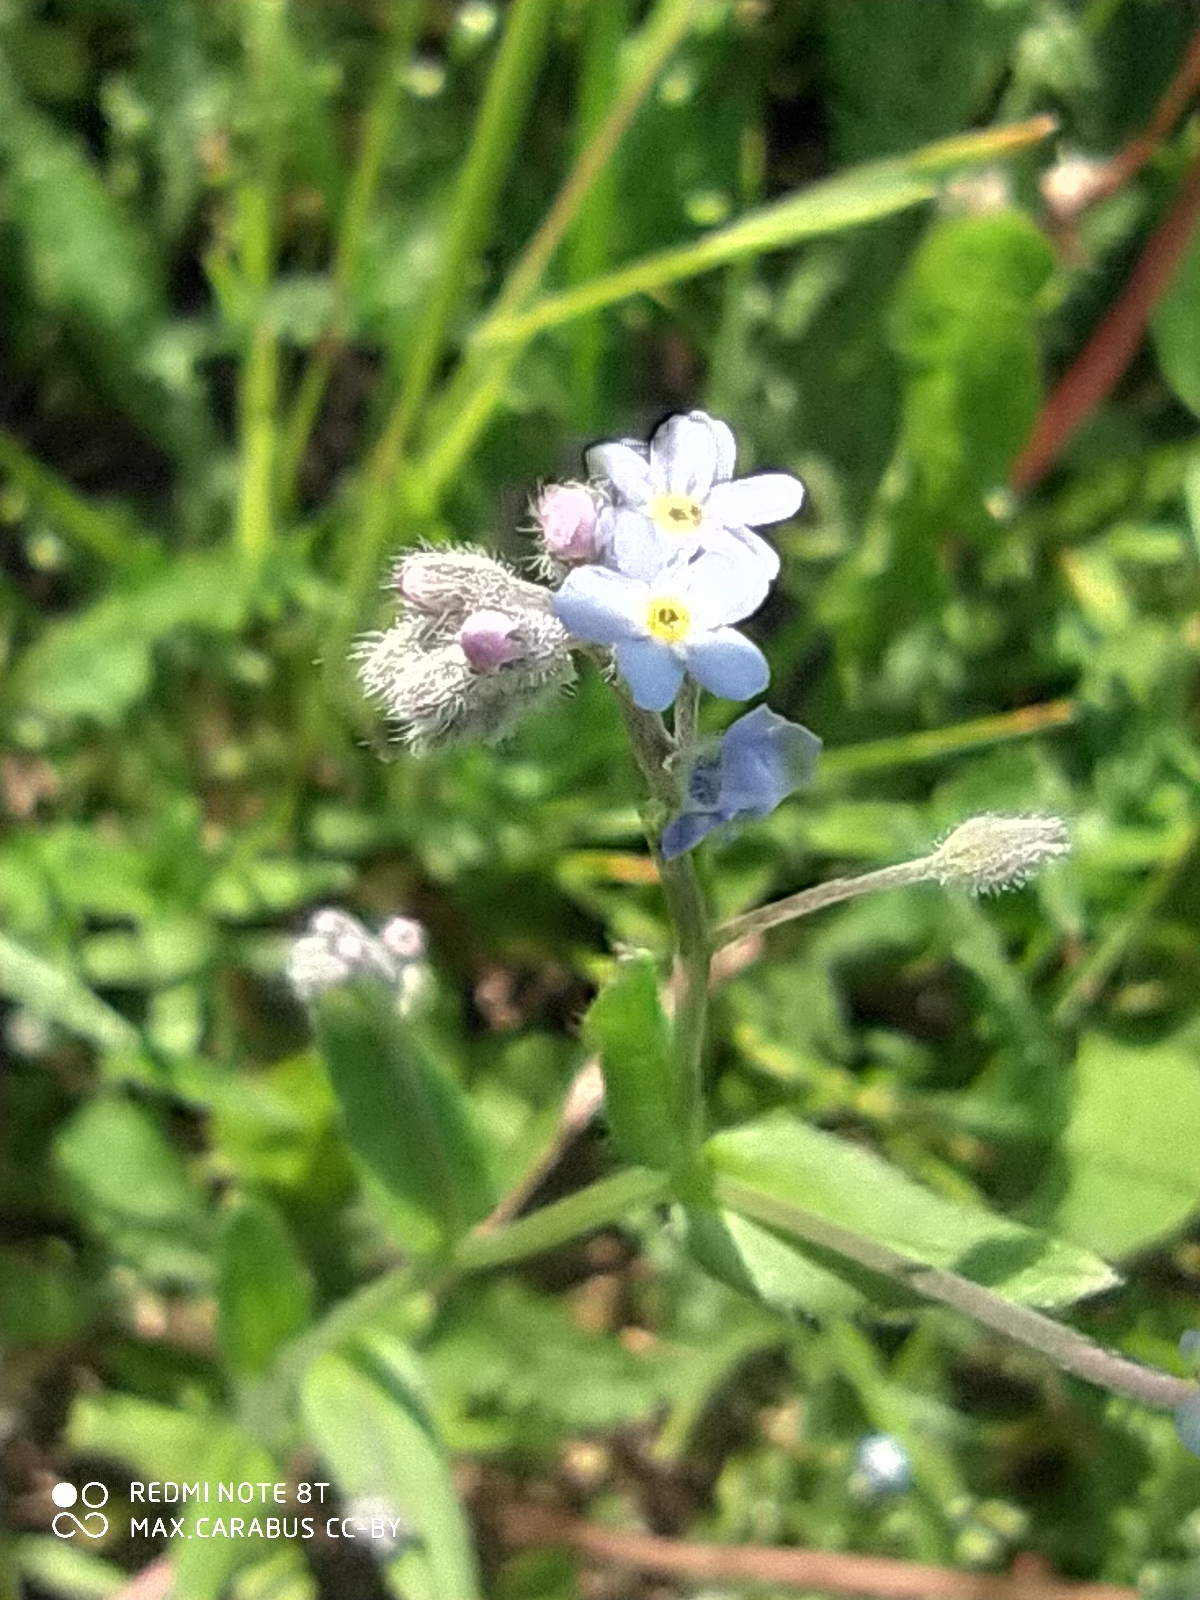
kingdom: Plantae
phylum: Tracheophyta
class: Magnoliopsida
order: Boraginales
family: Boraginaceae
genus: Myosotis
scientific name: Myosotis arvensis
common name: Field forget-me-not
